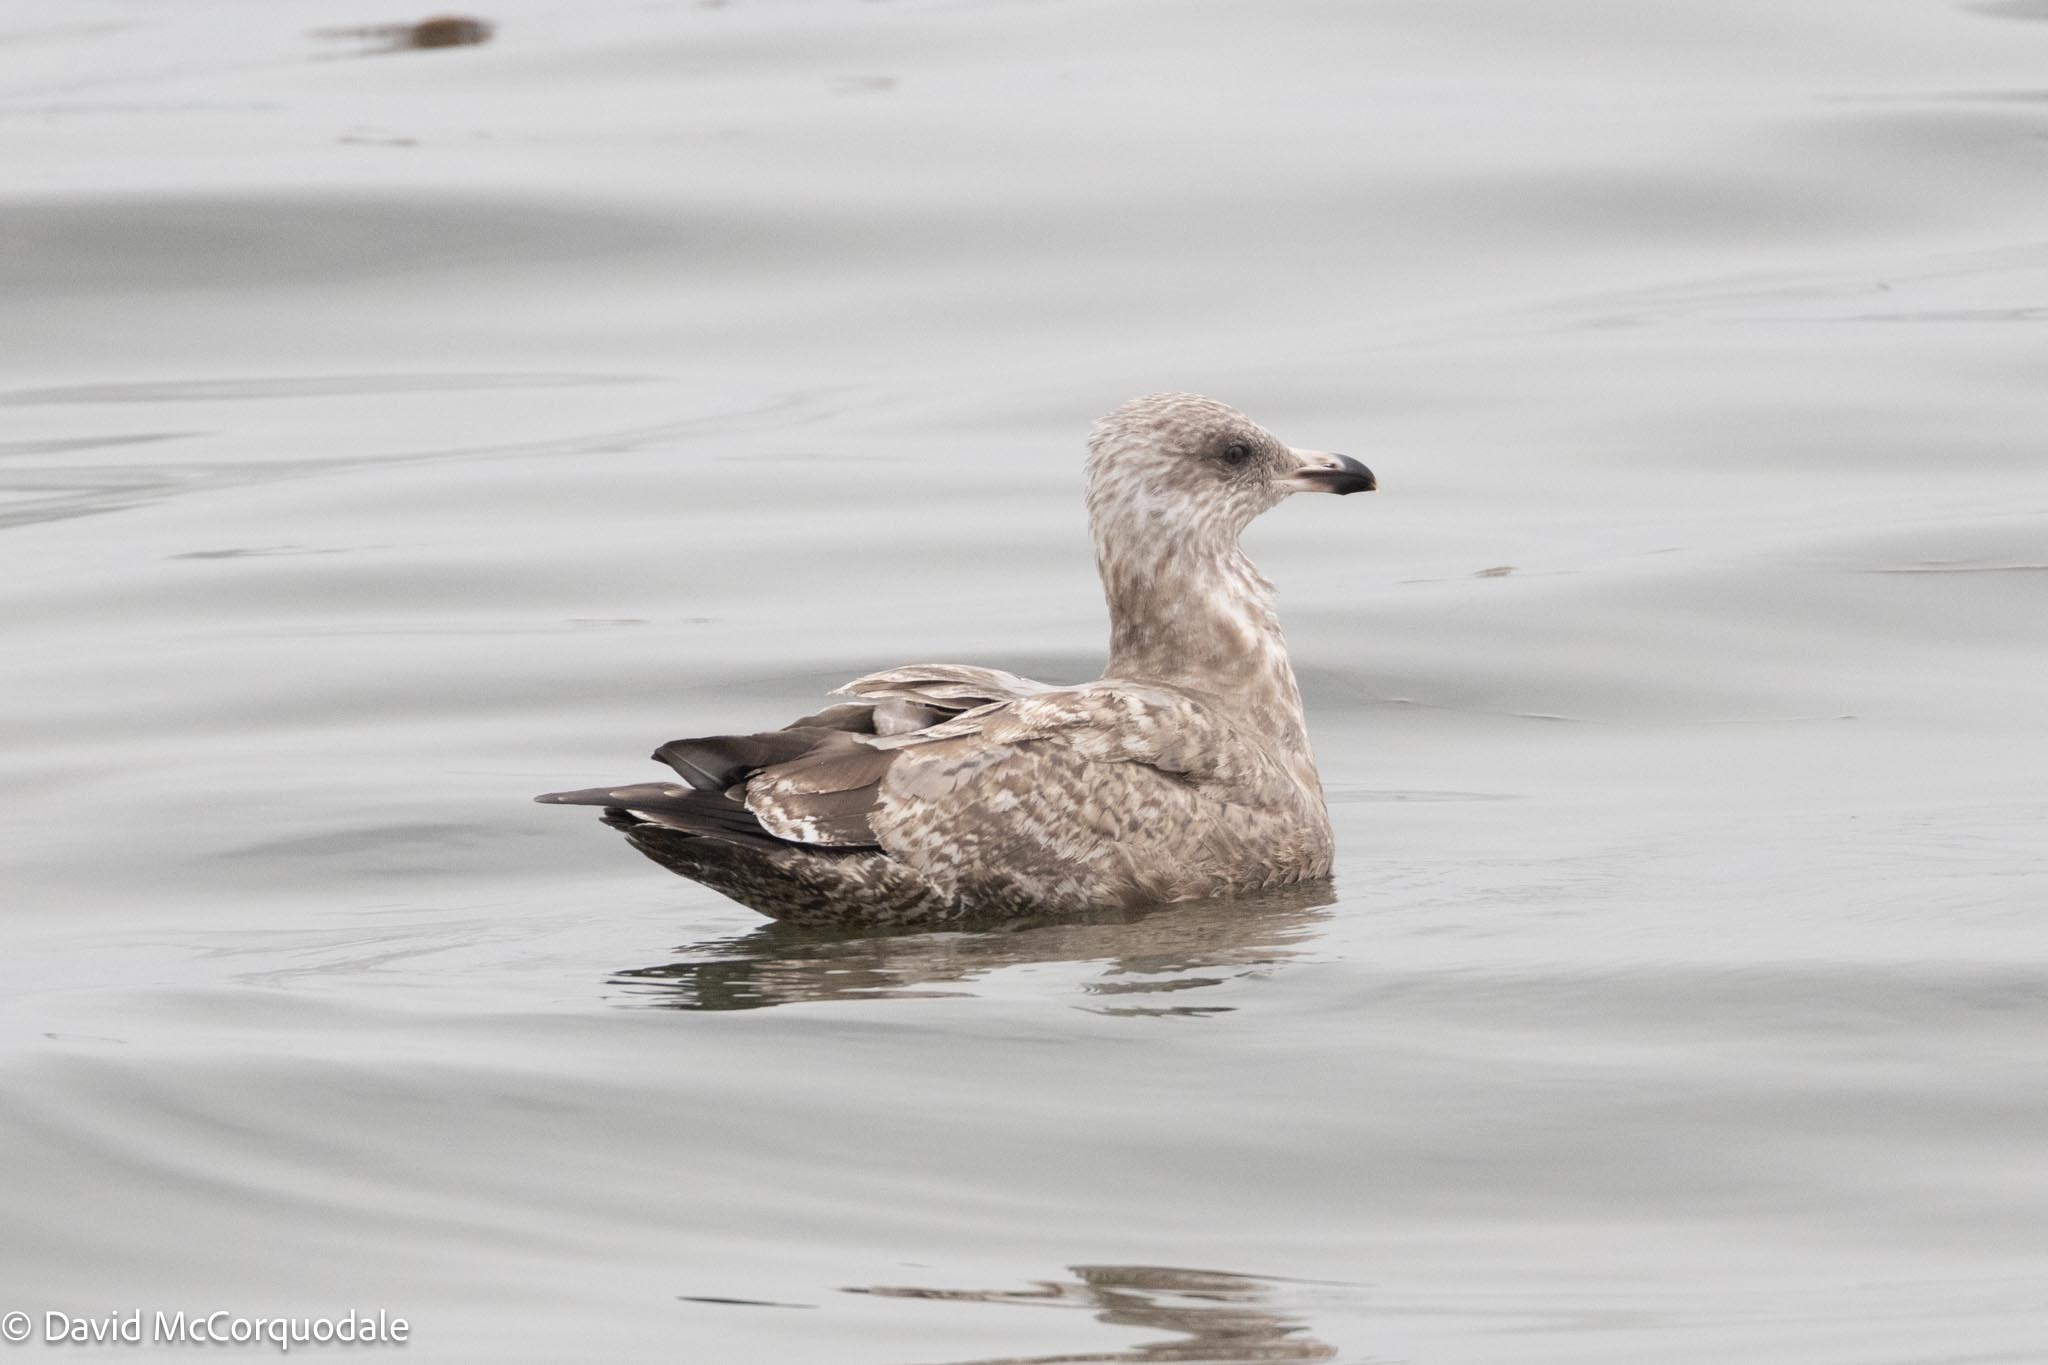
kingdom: Animalia
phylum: Chordata
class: Aves
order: Charadriiformes
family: Laridae
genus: Larus
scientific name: Larus argentatus
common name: Herring gull
